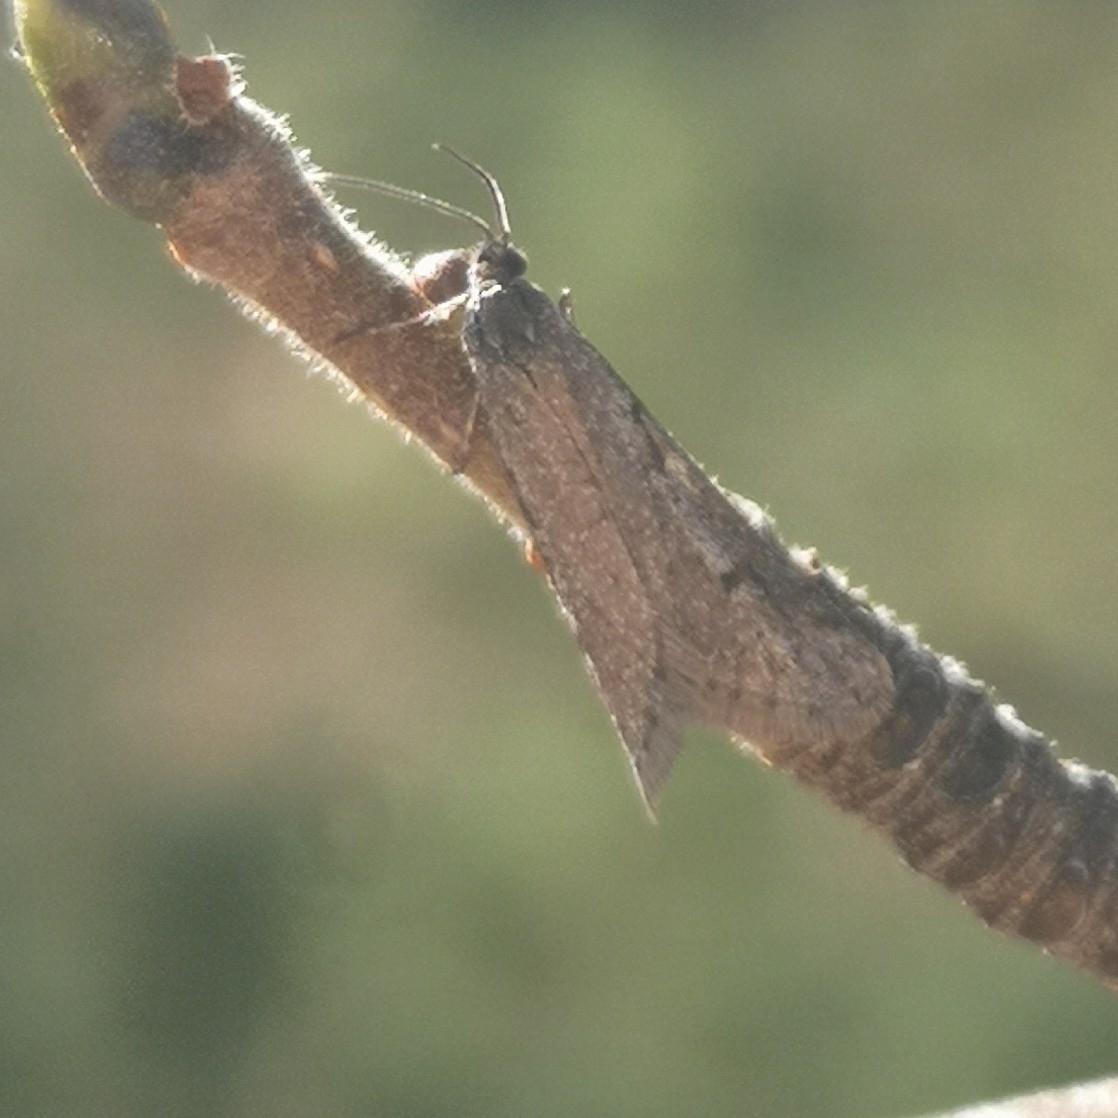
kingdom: Animalia
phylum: Arthropoda
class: Insecta
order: Lepidoptera
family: Tortricidae
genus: Exapate
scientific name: Exapate congelatella
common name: Autumnal shade
